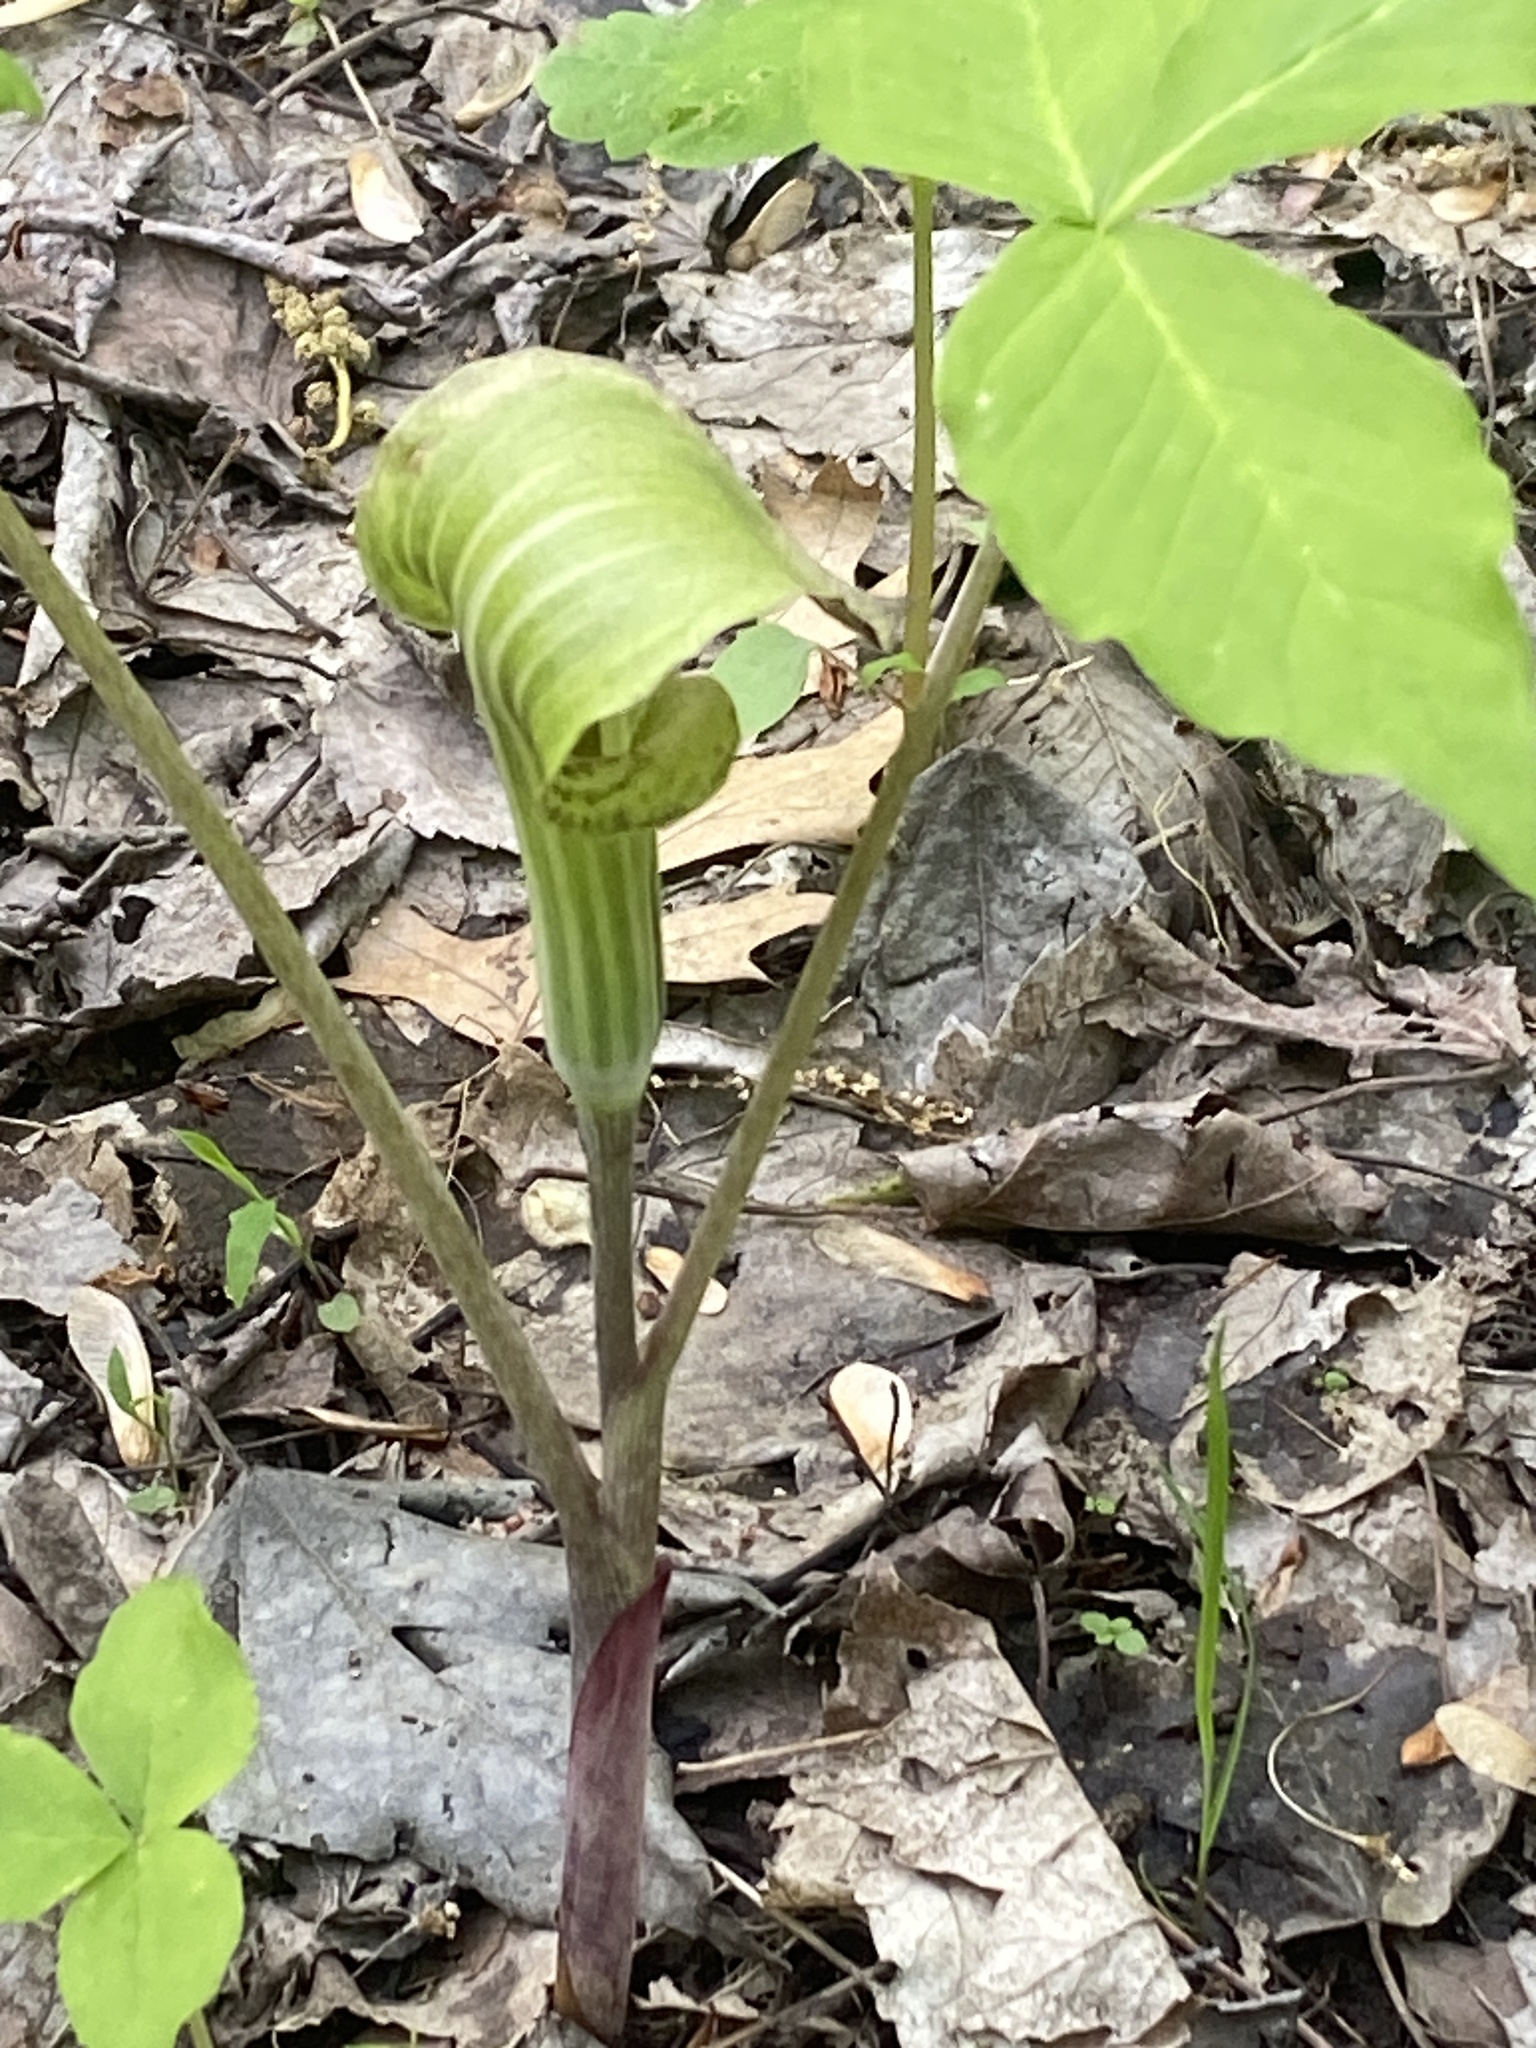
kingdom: Plantae
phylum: Tracheophyta
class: Liliopsida
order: Alismatales
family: Araceae
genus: Arisaema
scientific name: Arisaema triphyllum
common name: Jack-in-the-pulpit
